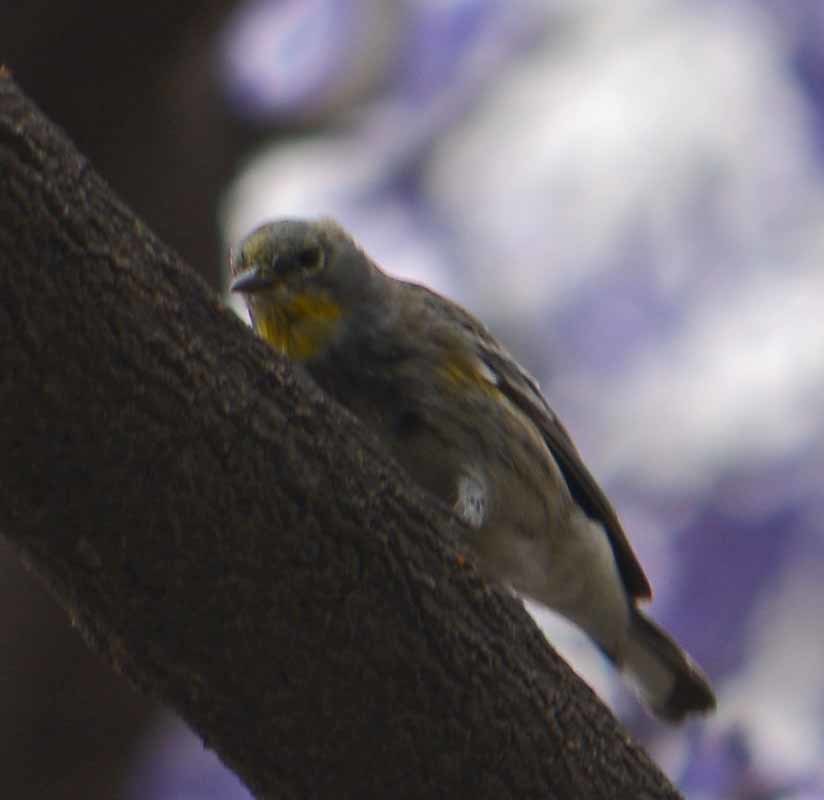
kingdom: Animalia
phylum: Chordata
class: Aves
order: Passeriformes
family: Parulidae
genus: Setophaga
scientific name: Setophaga coronata
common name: Myrtle warbler
